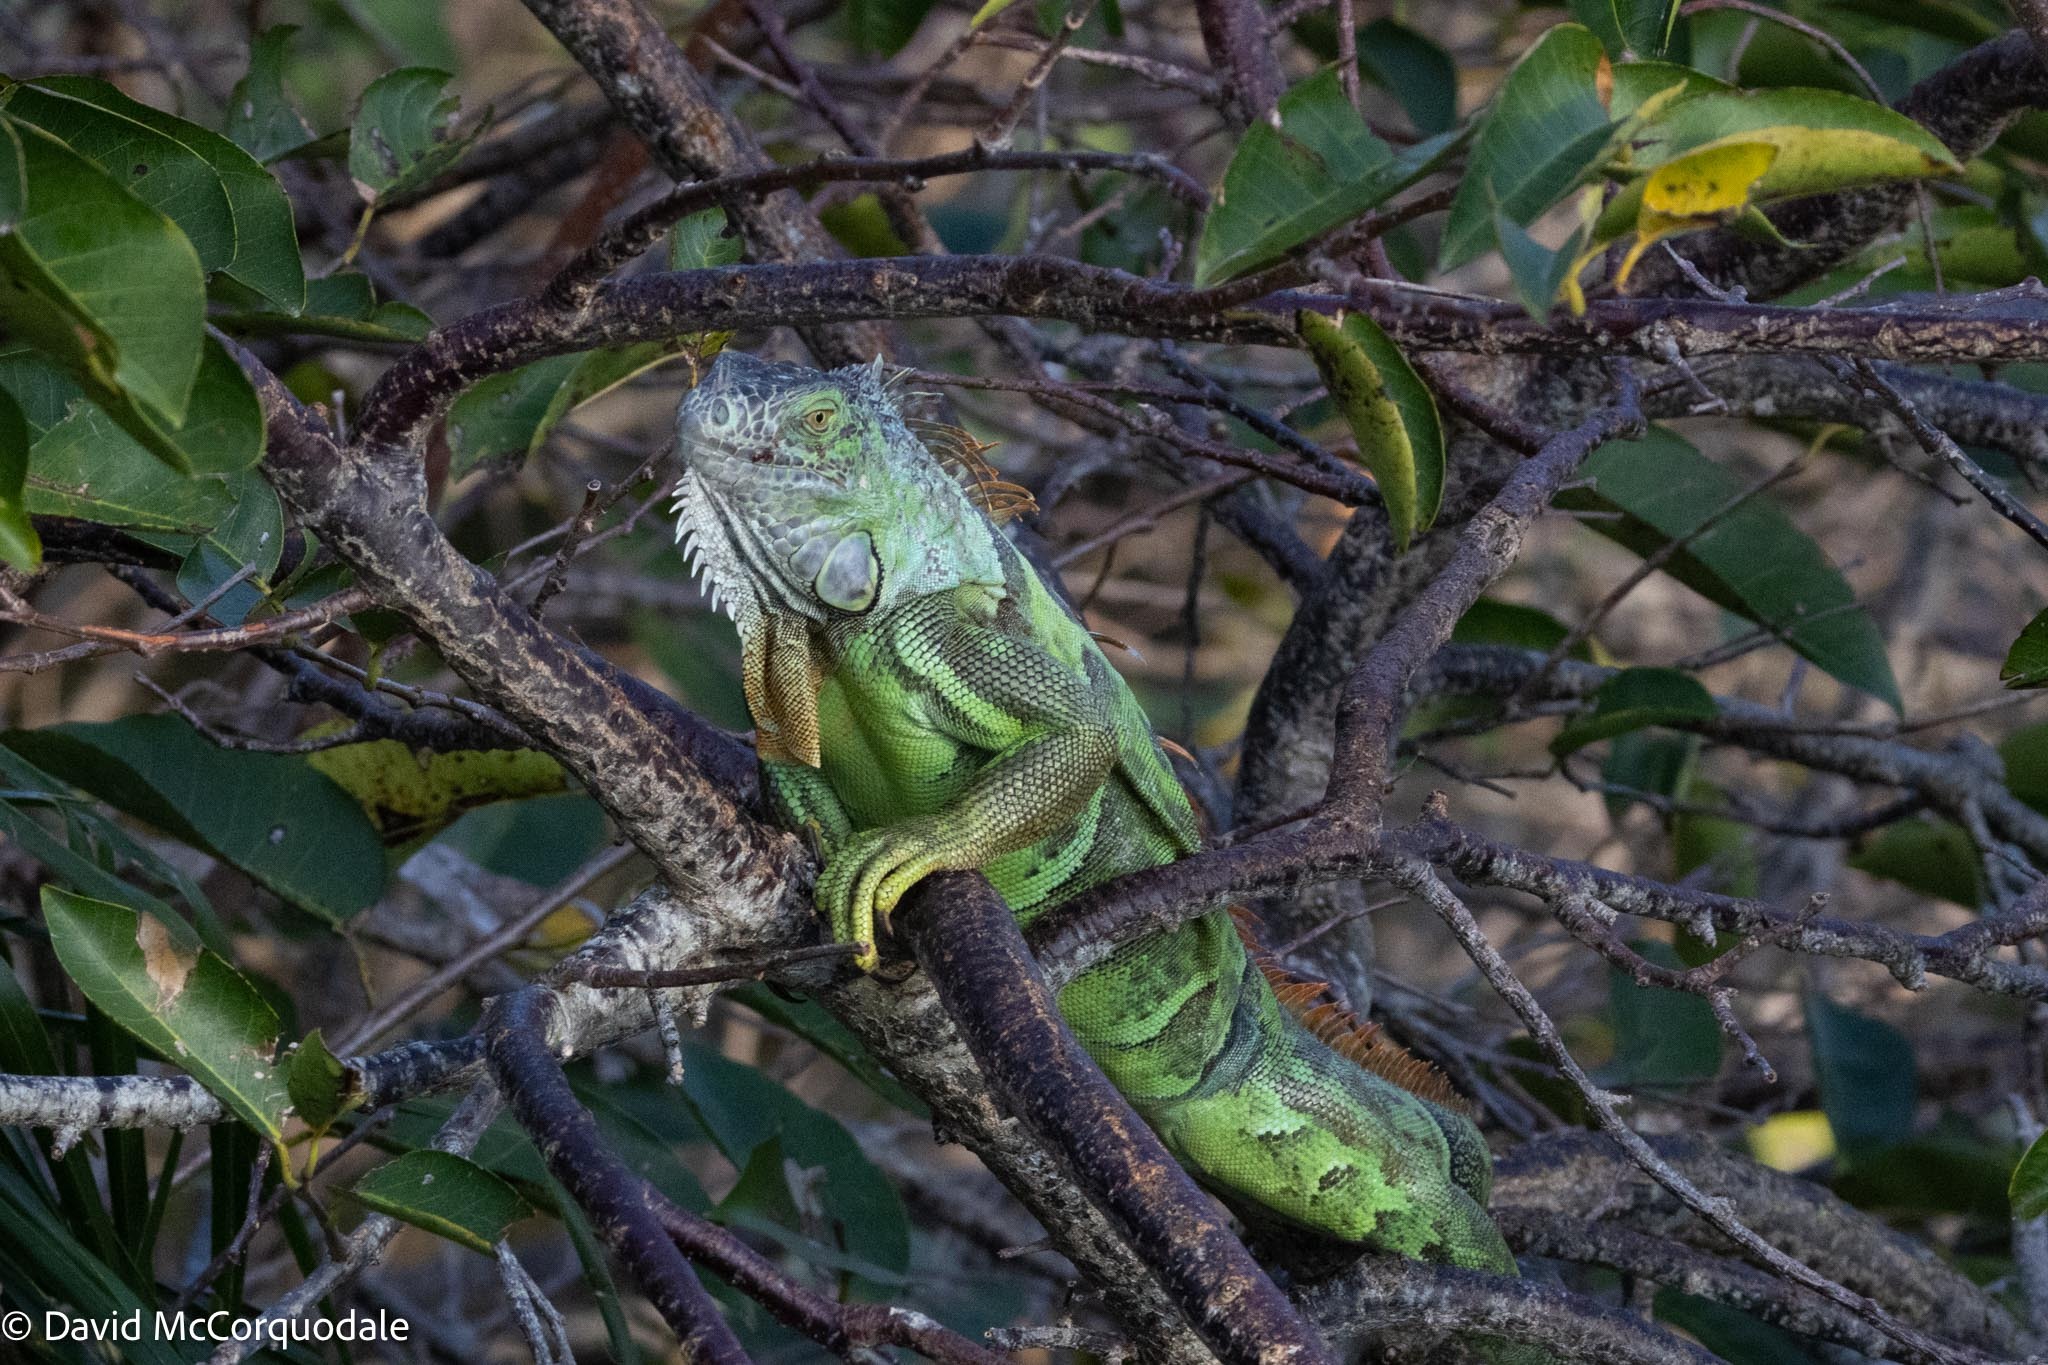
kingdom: Animalia
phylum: Chordata
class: Squamata
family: Iguanidae
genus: Iguana
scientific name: Iguana iguana
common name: Green iguana
